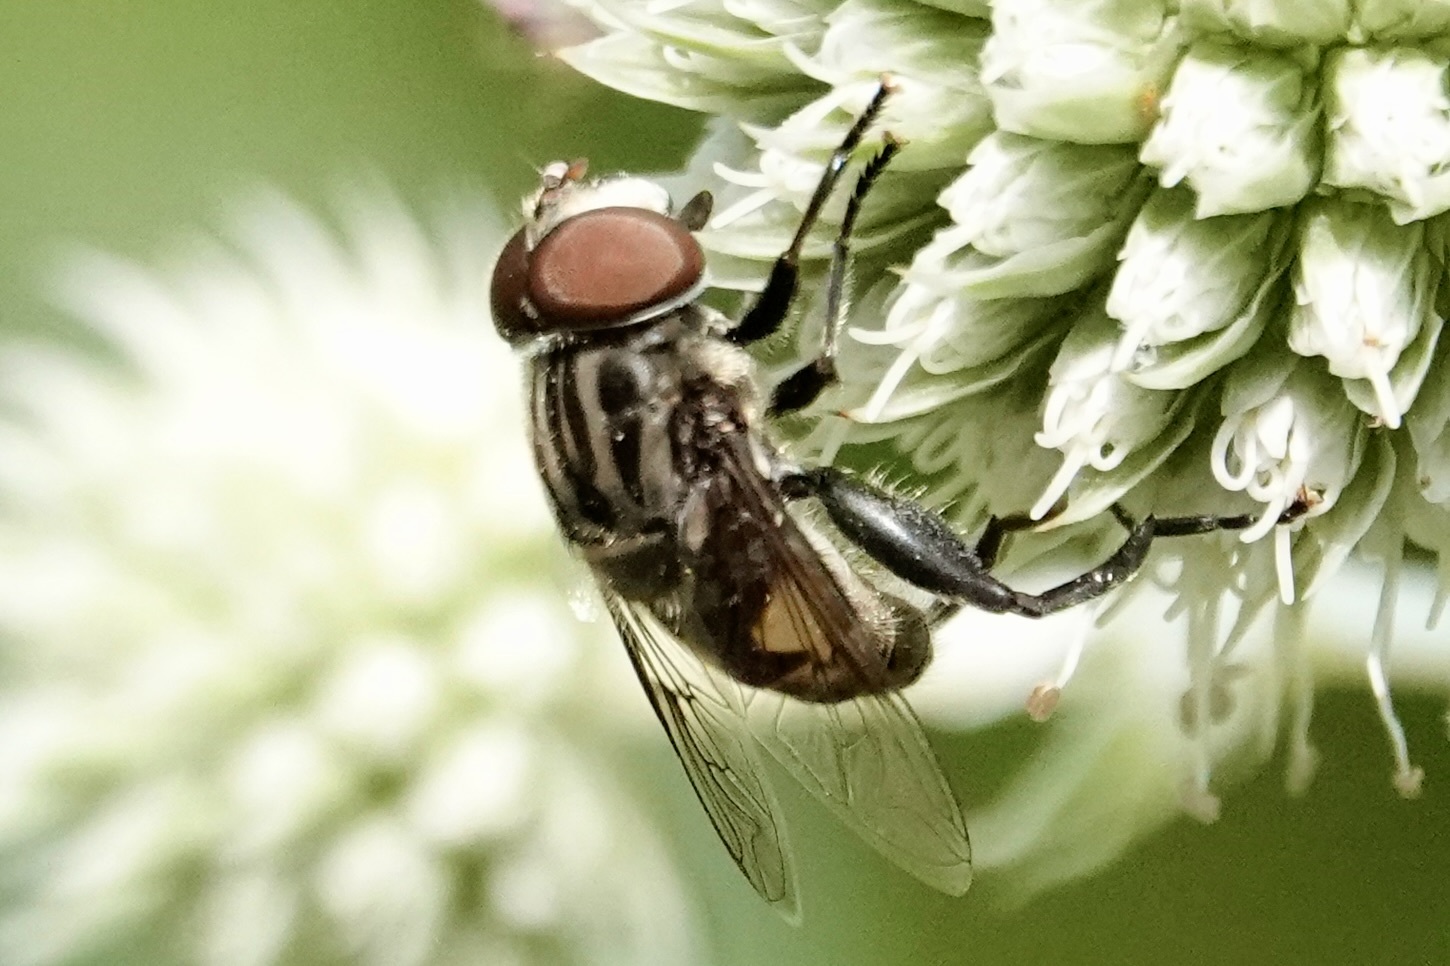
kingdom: Animalia
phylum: Arthropoda
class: Insecta
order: Diptera
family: Syrphidae
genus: Palpada
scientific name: Palpada furcata
